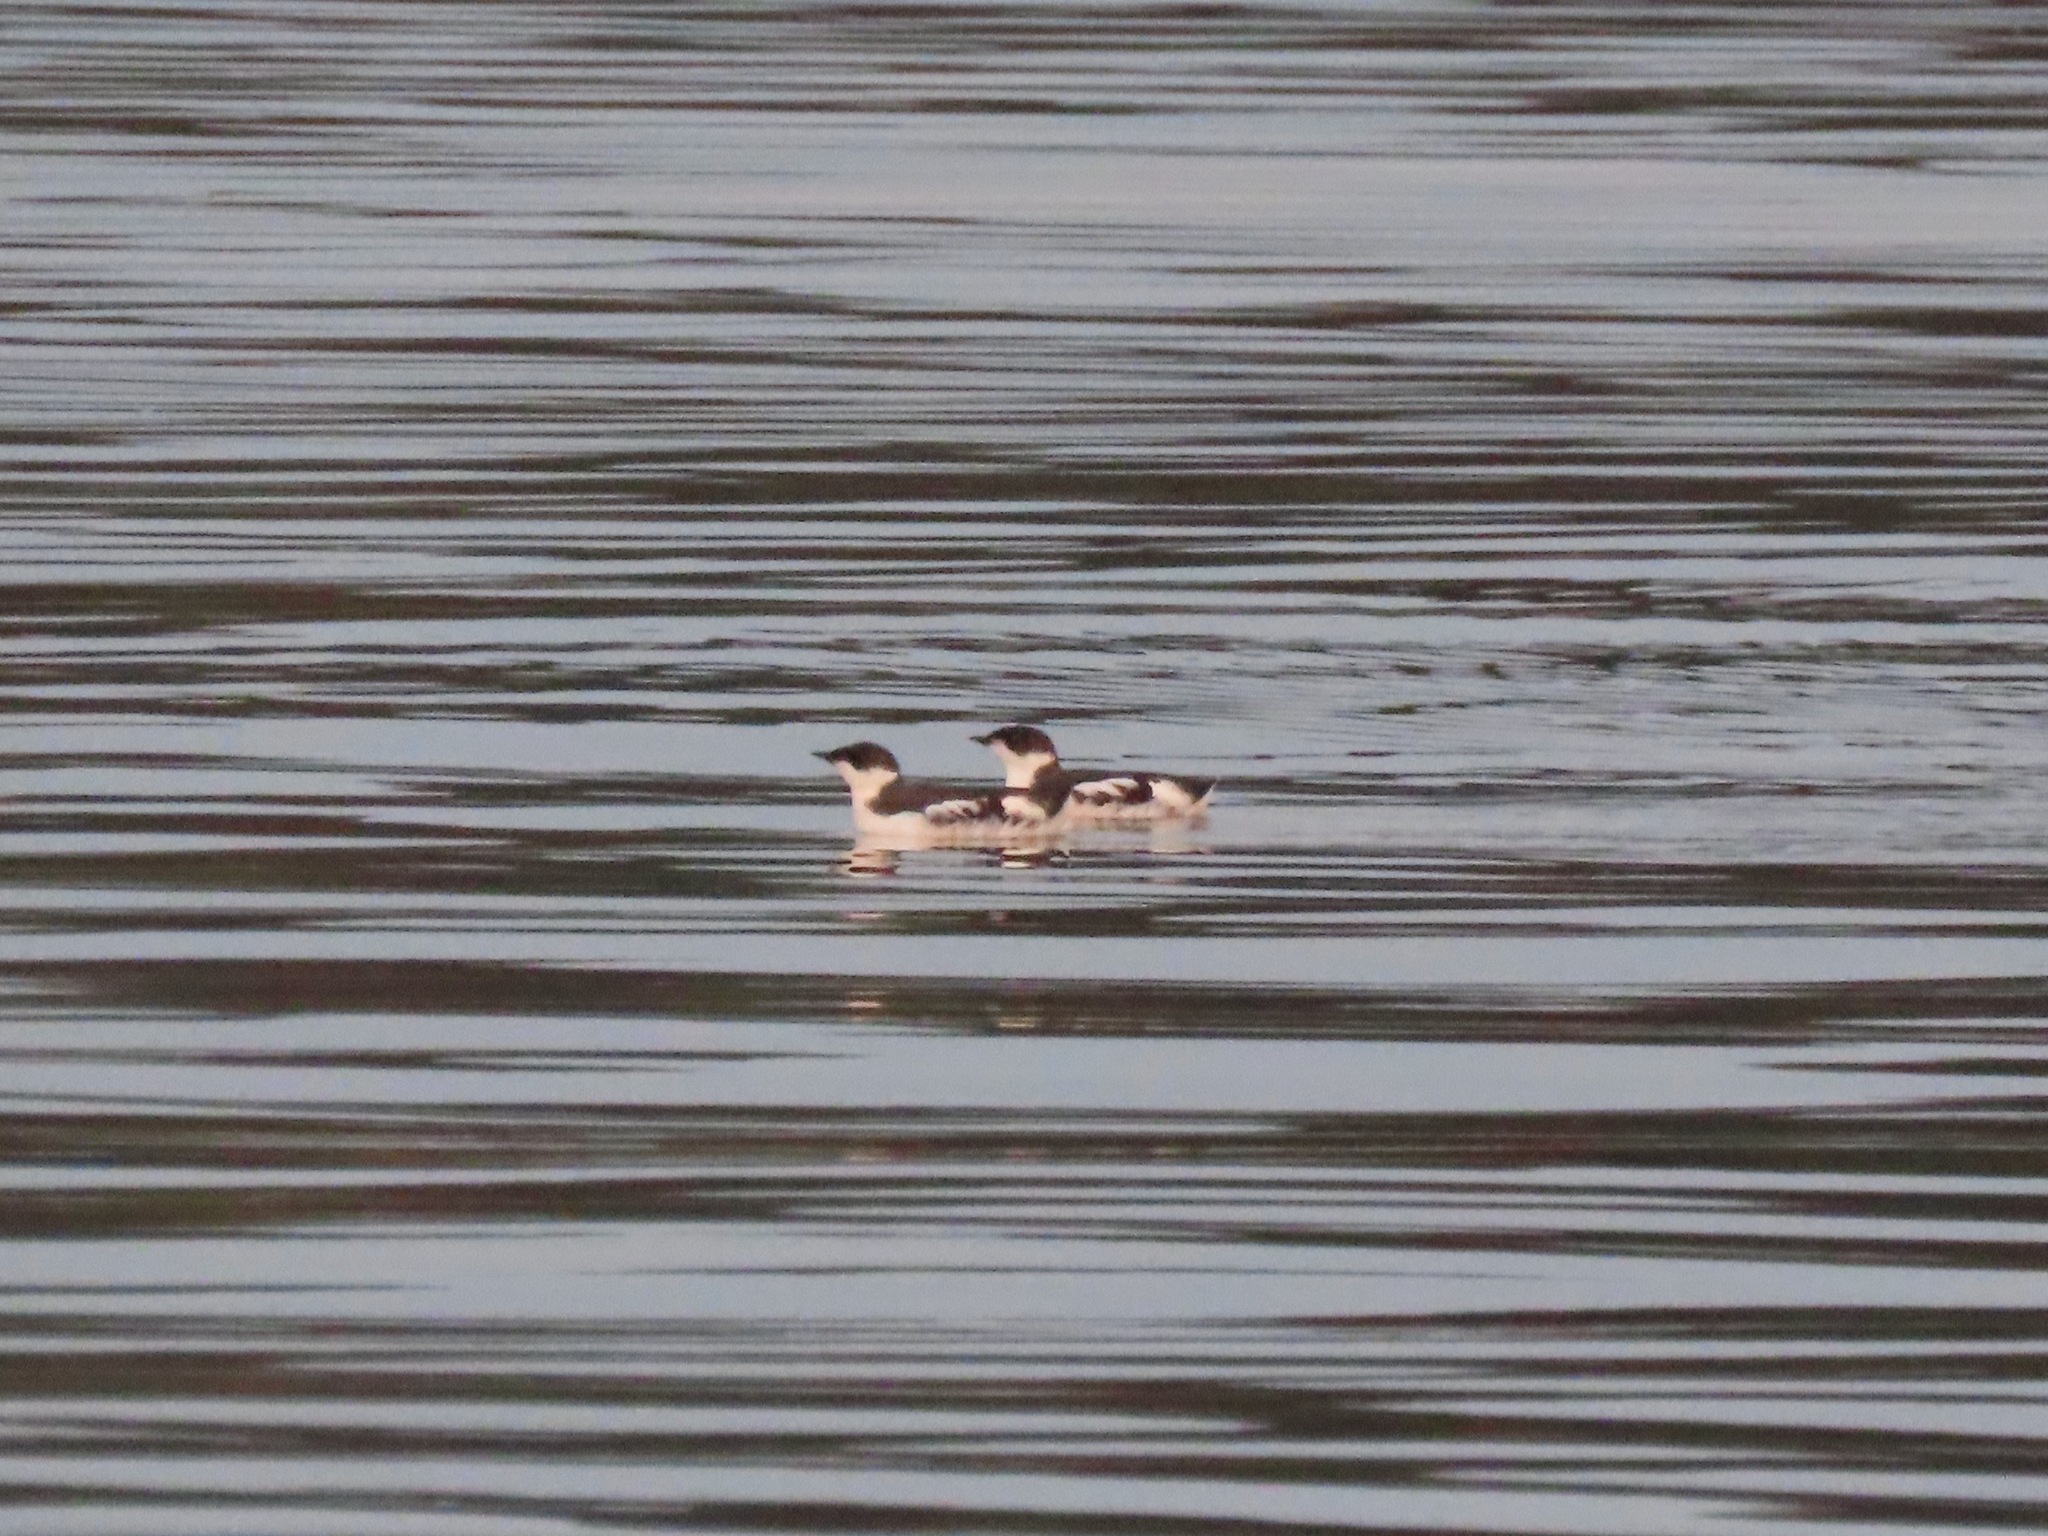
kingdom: Animalia
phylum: Chordata
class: Aves
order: Charadriiformes
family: Alcidae
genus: Brachyramphus
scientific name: Brachyramphus marmoratus
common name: Marbled murrelet
